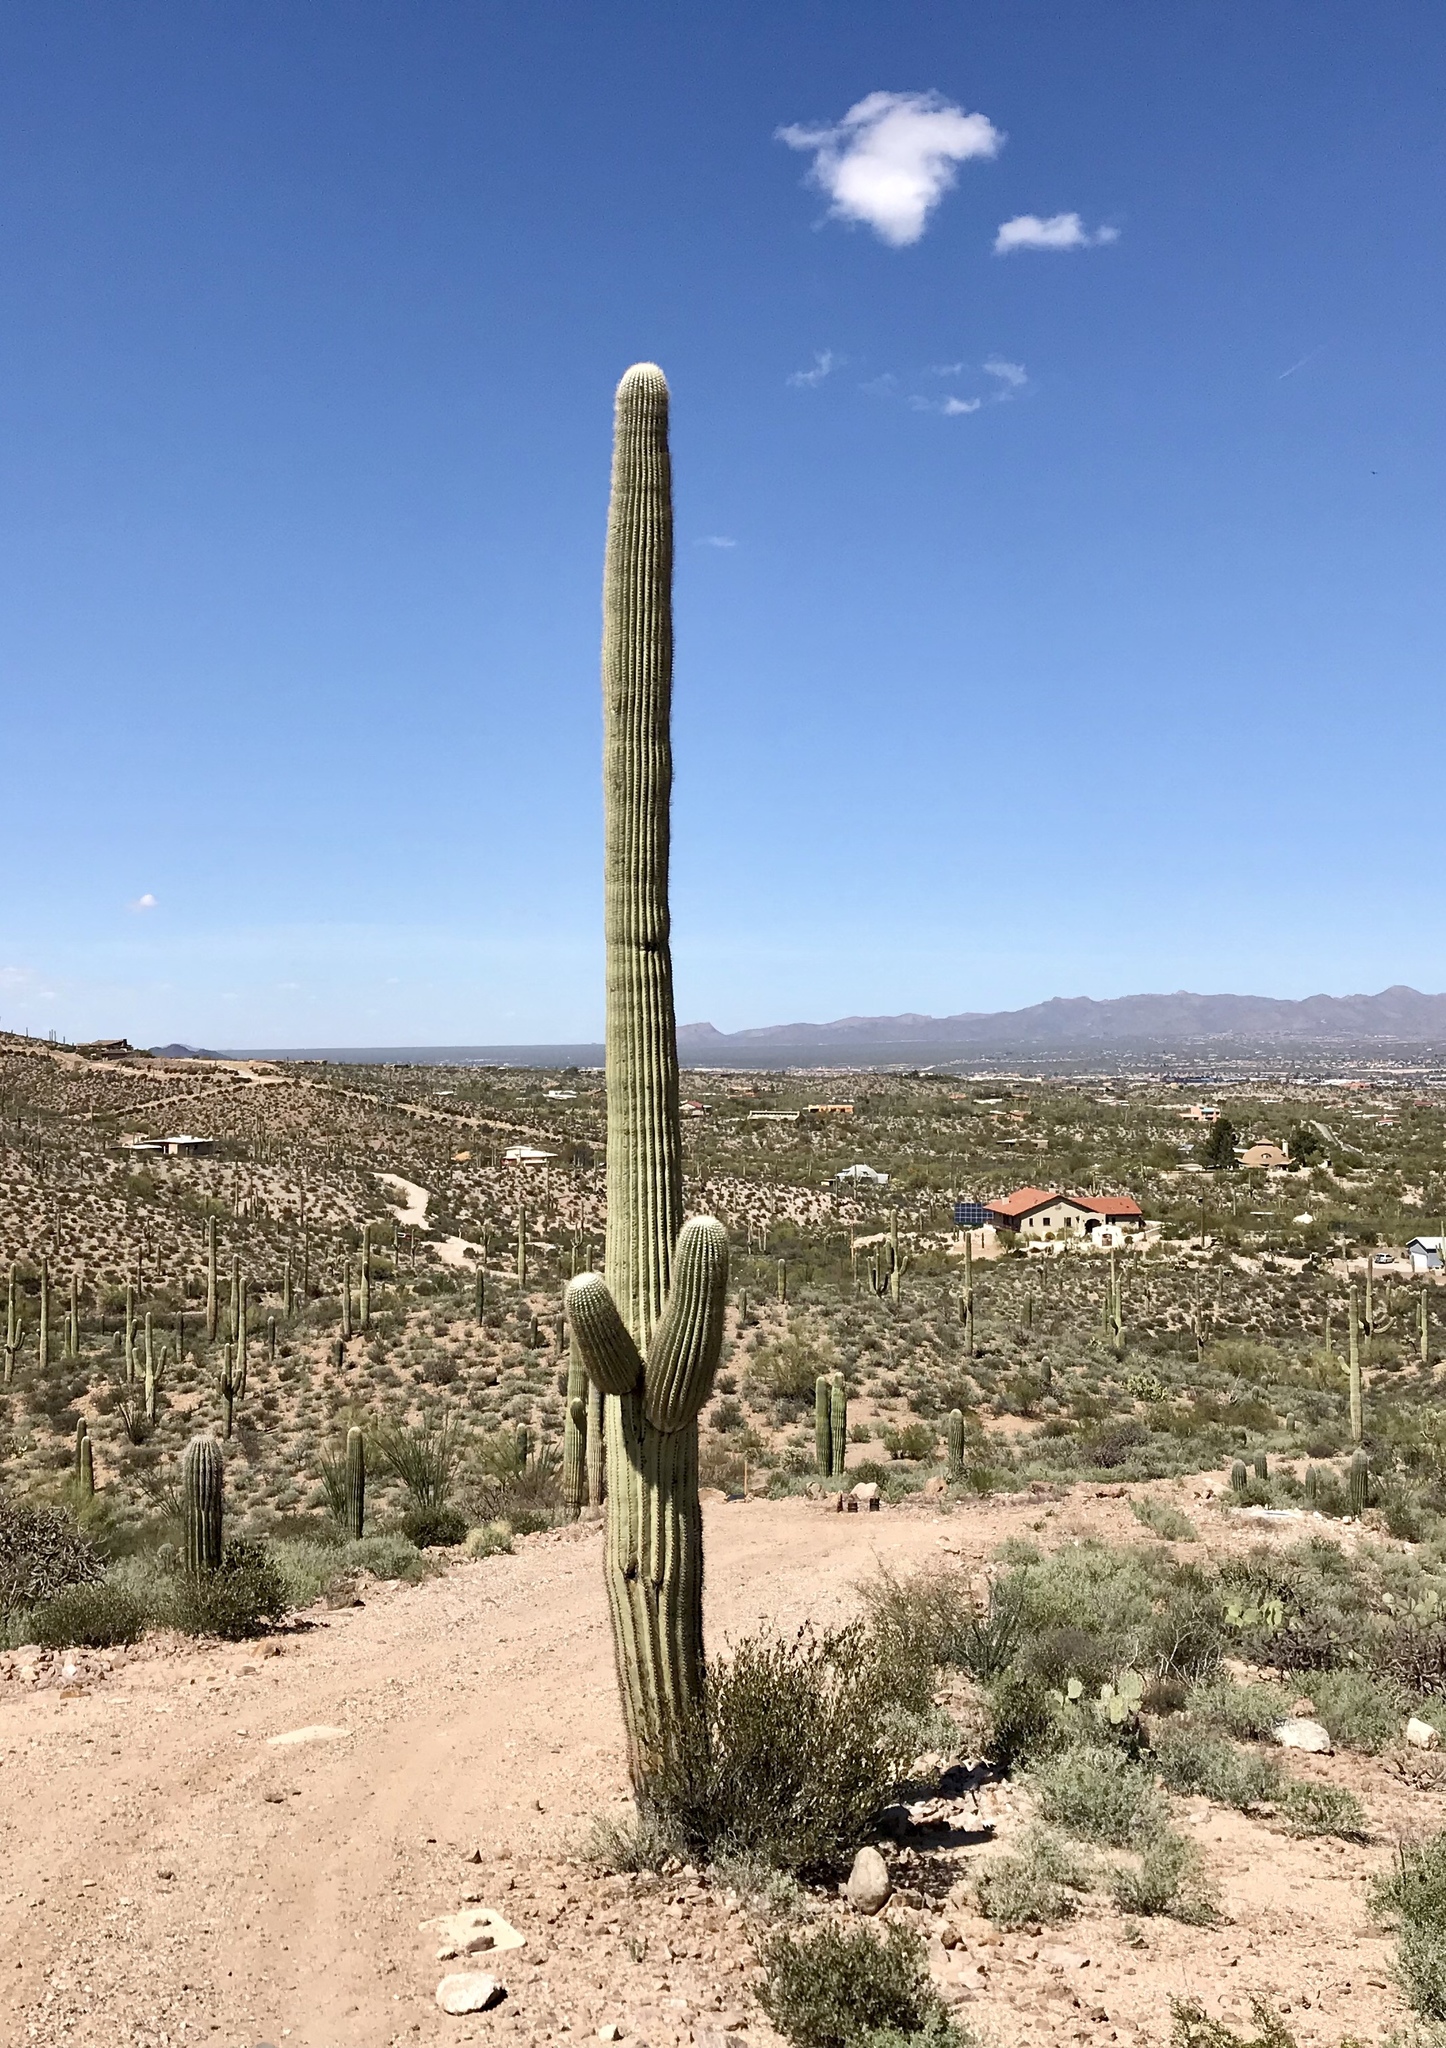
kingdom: Plantae
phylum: Tracheophyta
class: Magnoliopsida
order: Caryophyllales
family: Cactaceae
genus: Carnegiea
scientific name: Carnegiea gigantea
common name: Saguaro
